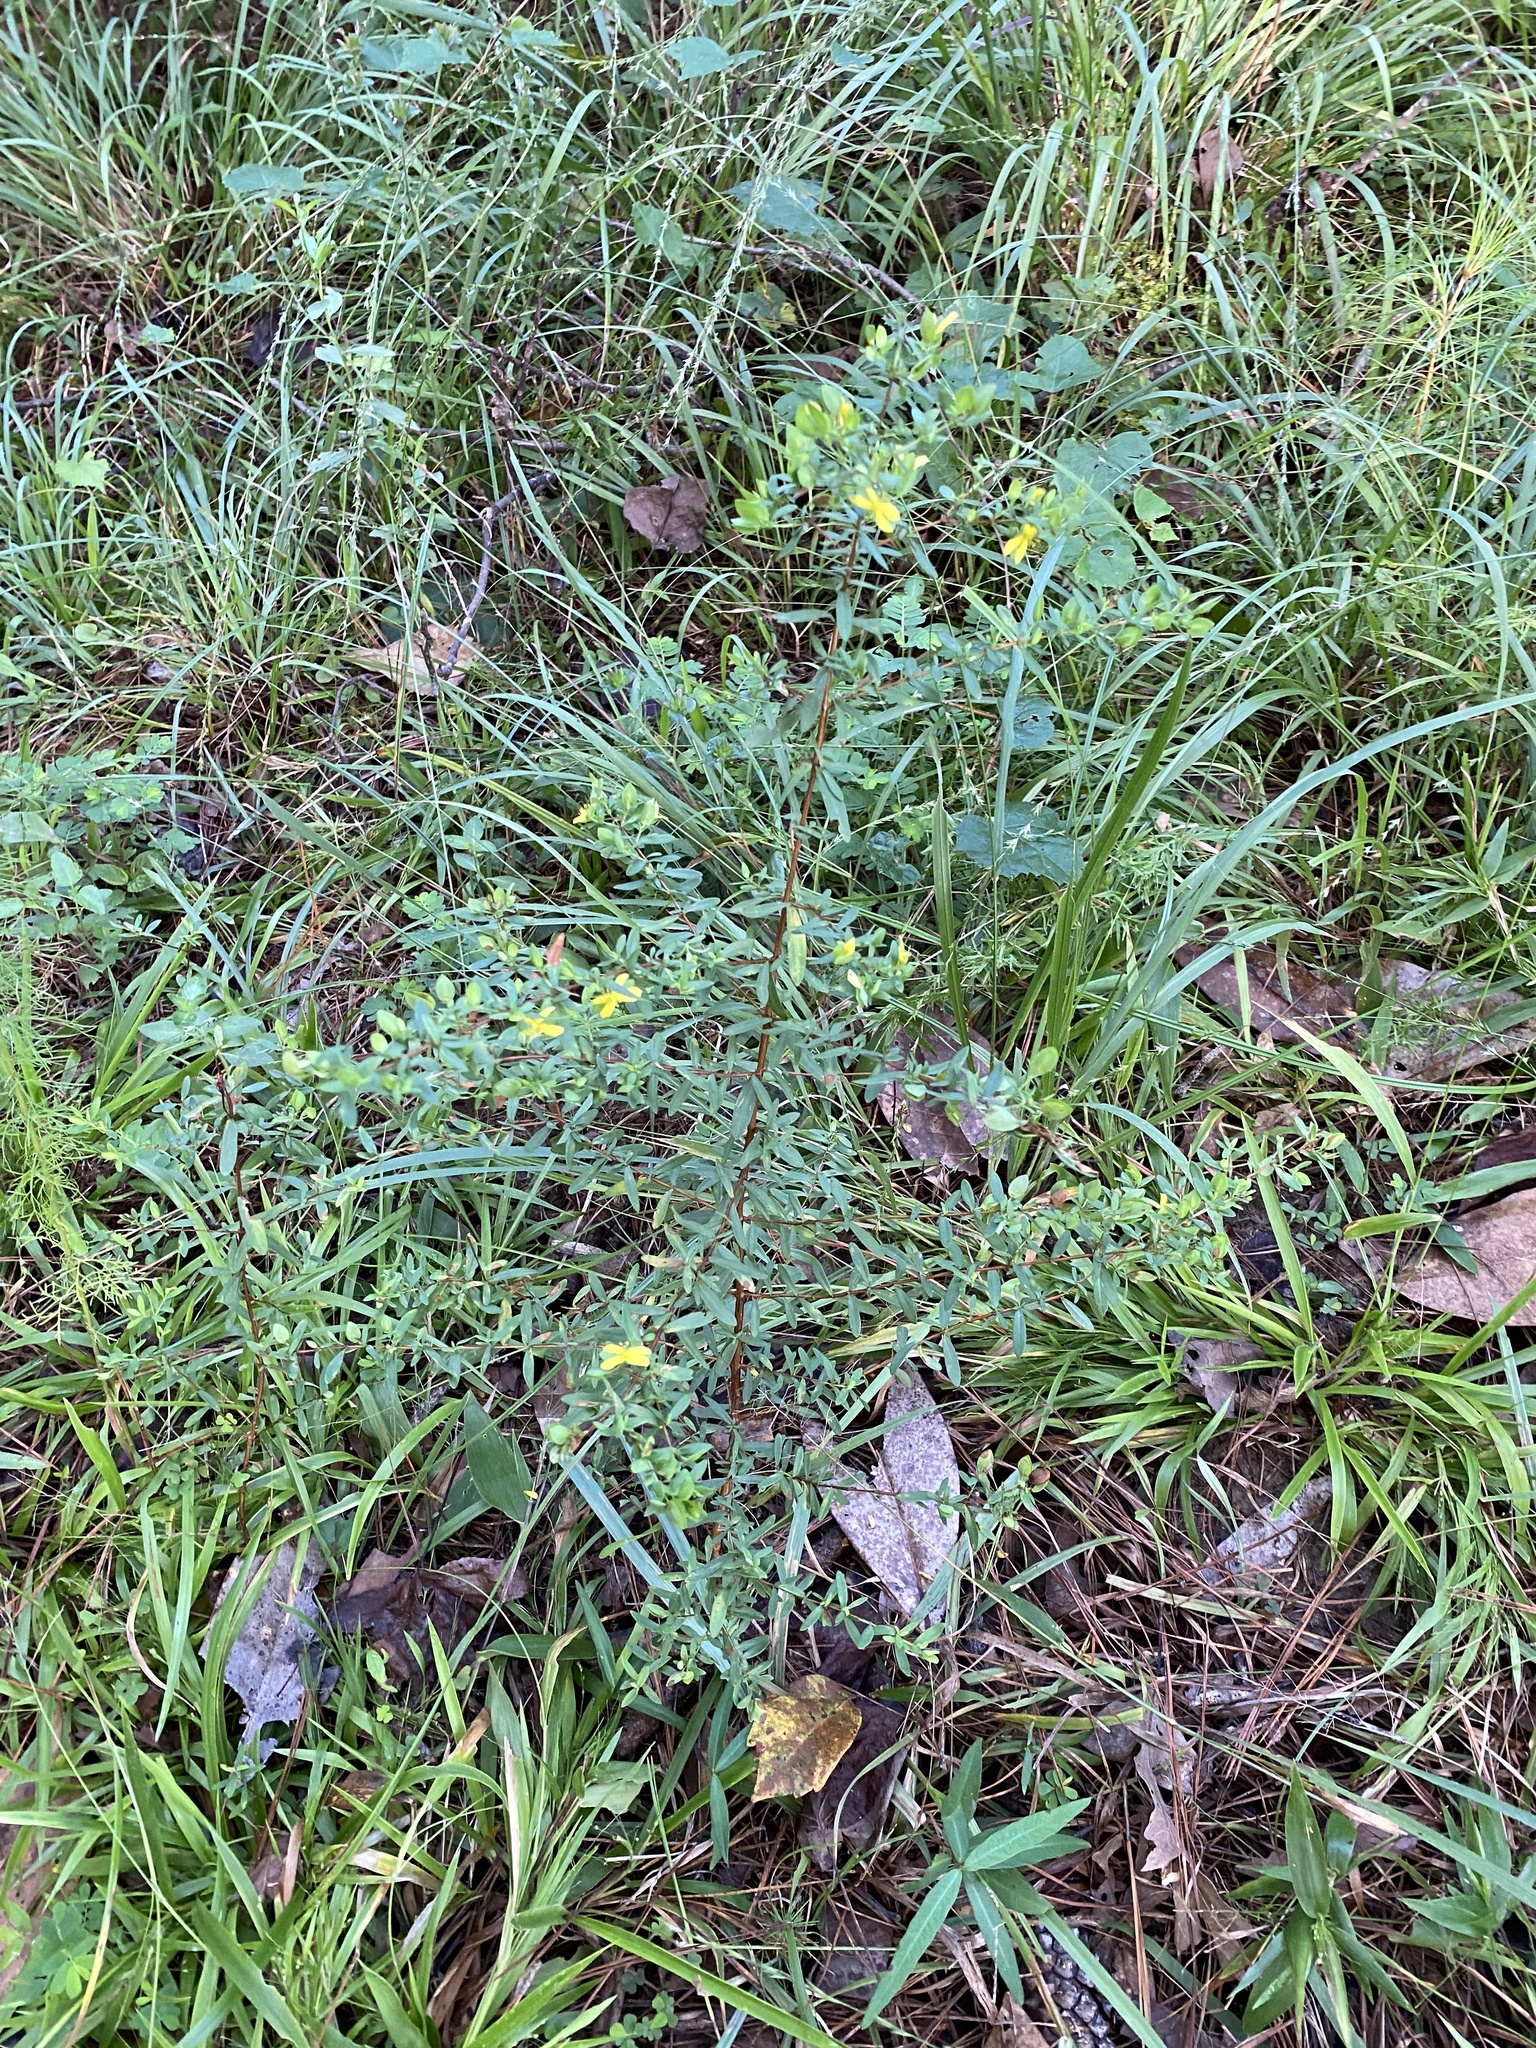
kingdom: Plantae
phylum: Tracheophyta
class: Magnoliopsida
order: Malpighiales
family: Hypericaceae
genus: Hypericum
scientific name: Hypericum hypericoides
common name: St. andrew's cross
